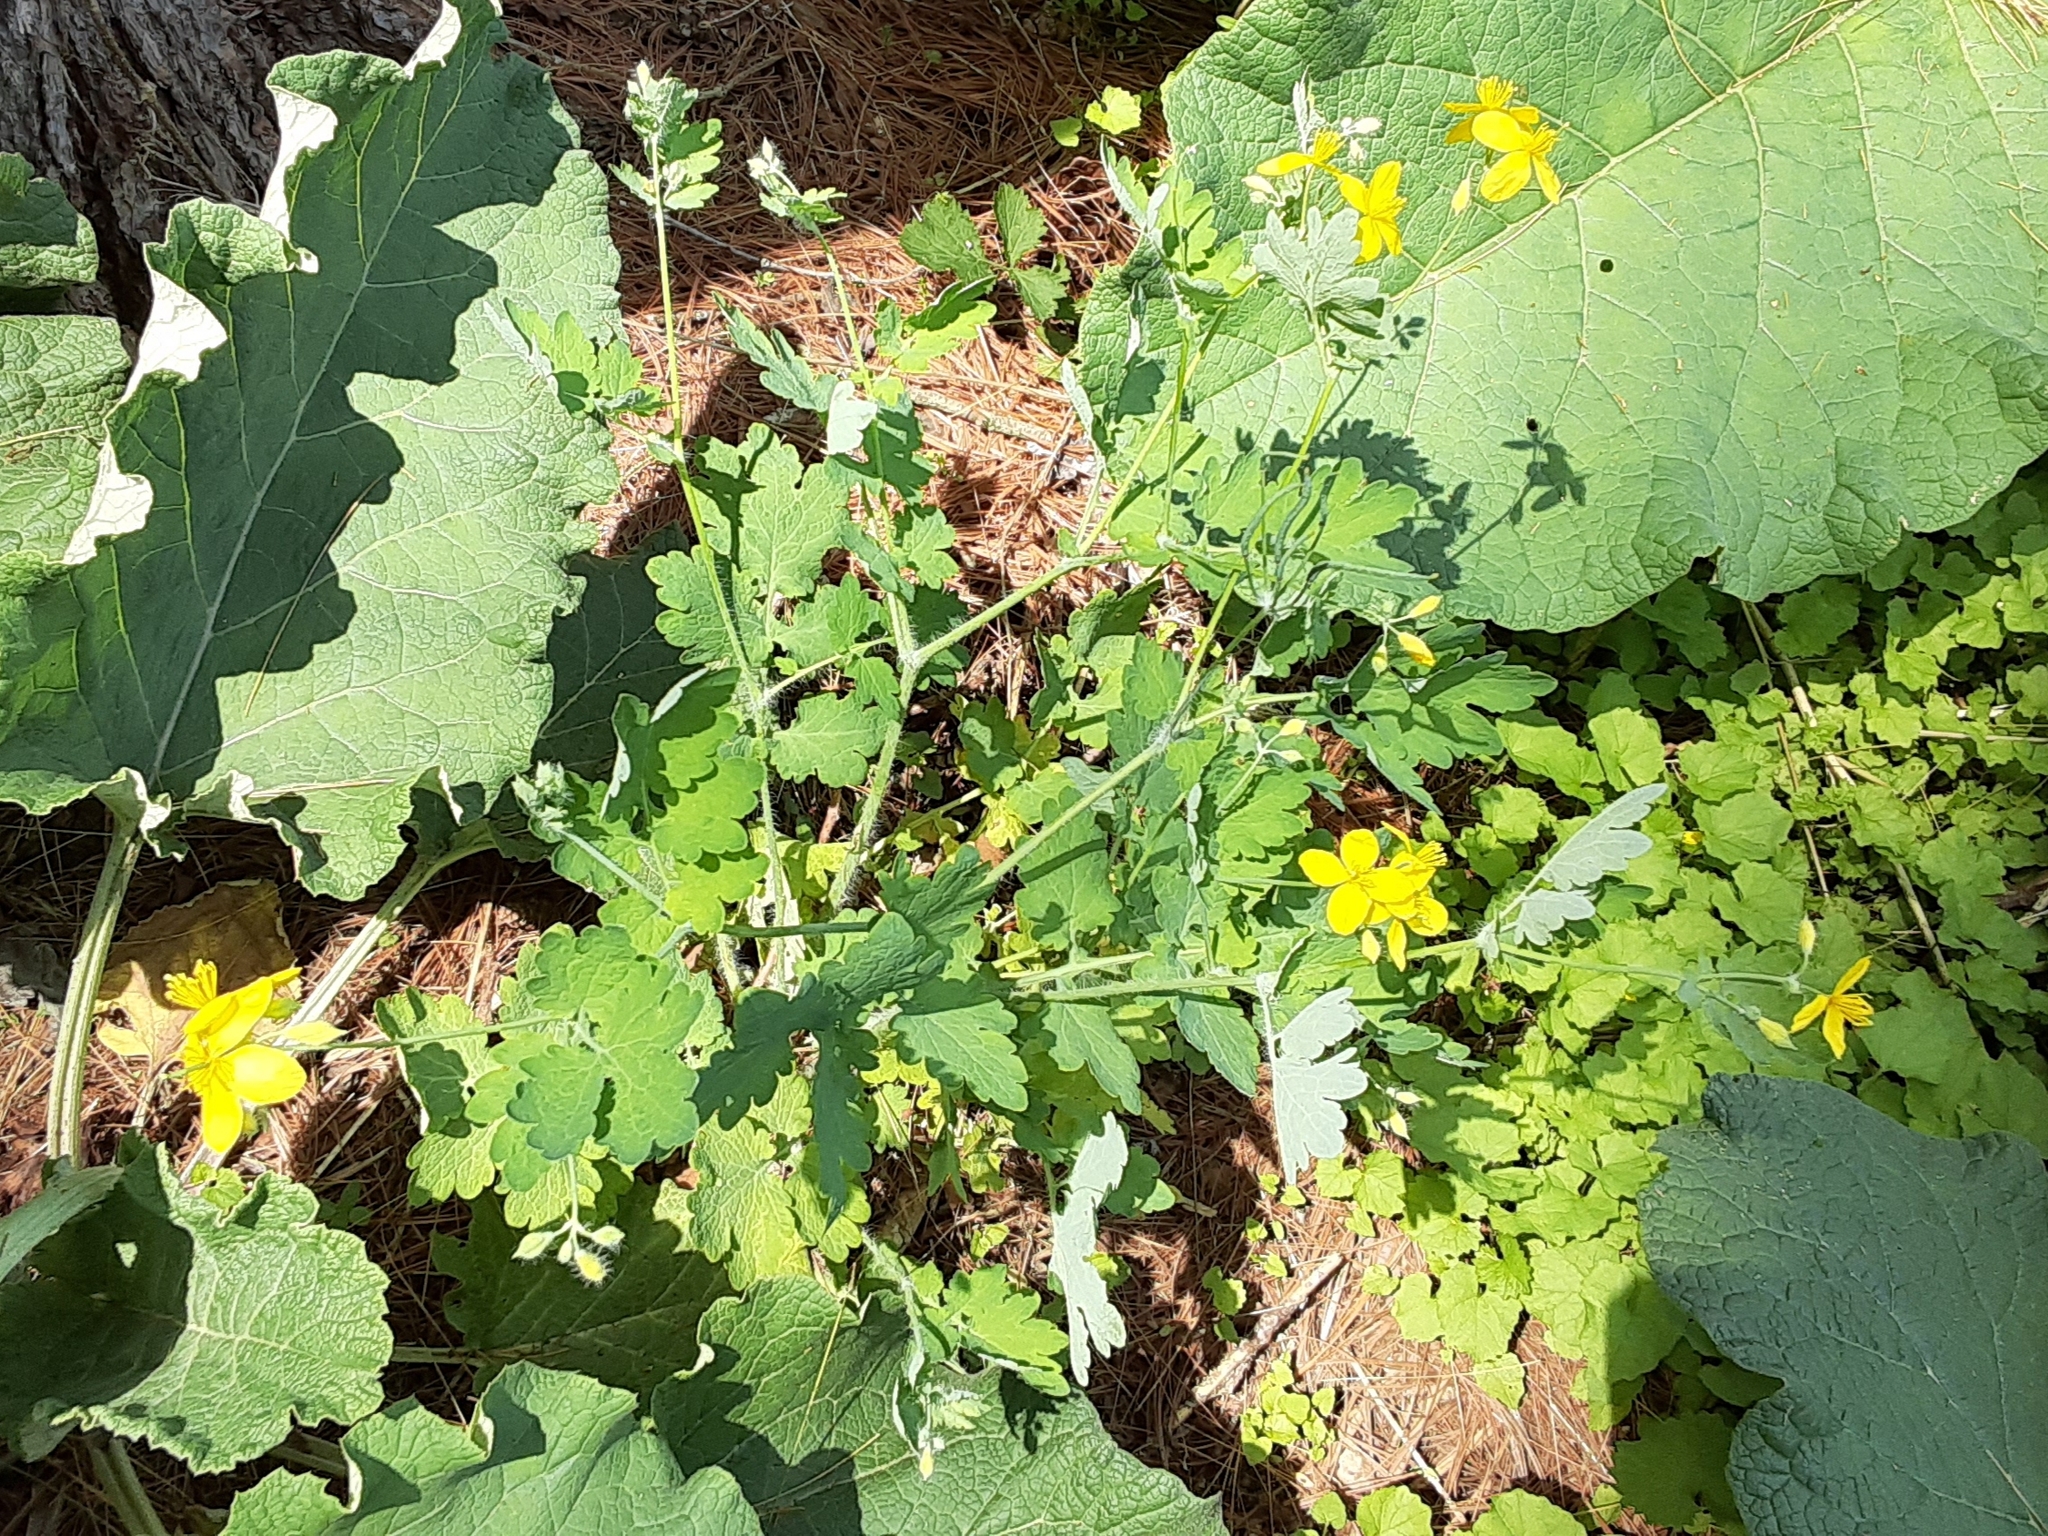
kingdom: Plantae
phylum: Tracheophyta
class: Magnoliopsida
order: Ranunculales
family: Papaveraceae
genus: Chelidonium
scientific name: Chelidonium majus
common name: Greater celandine
